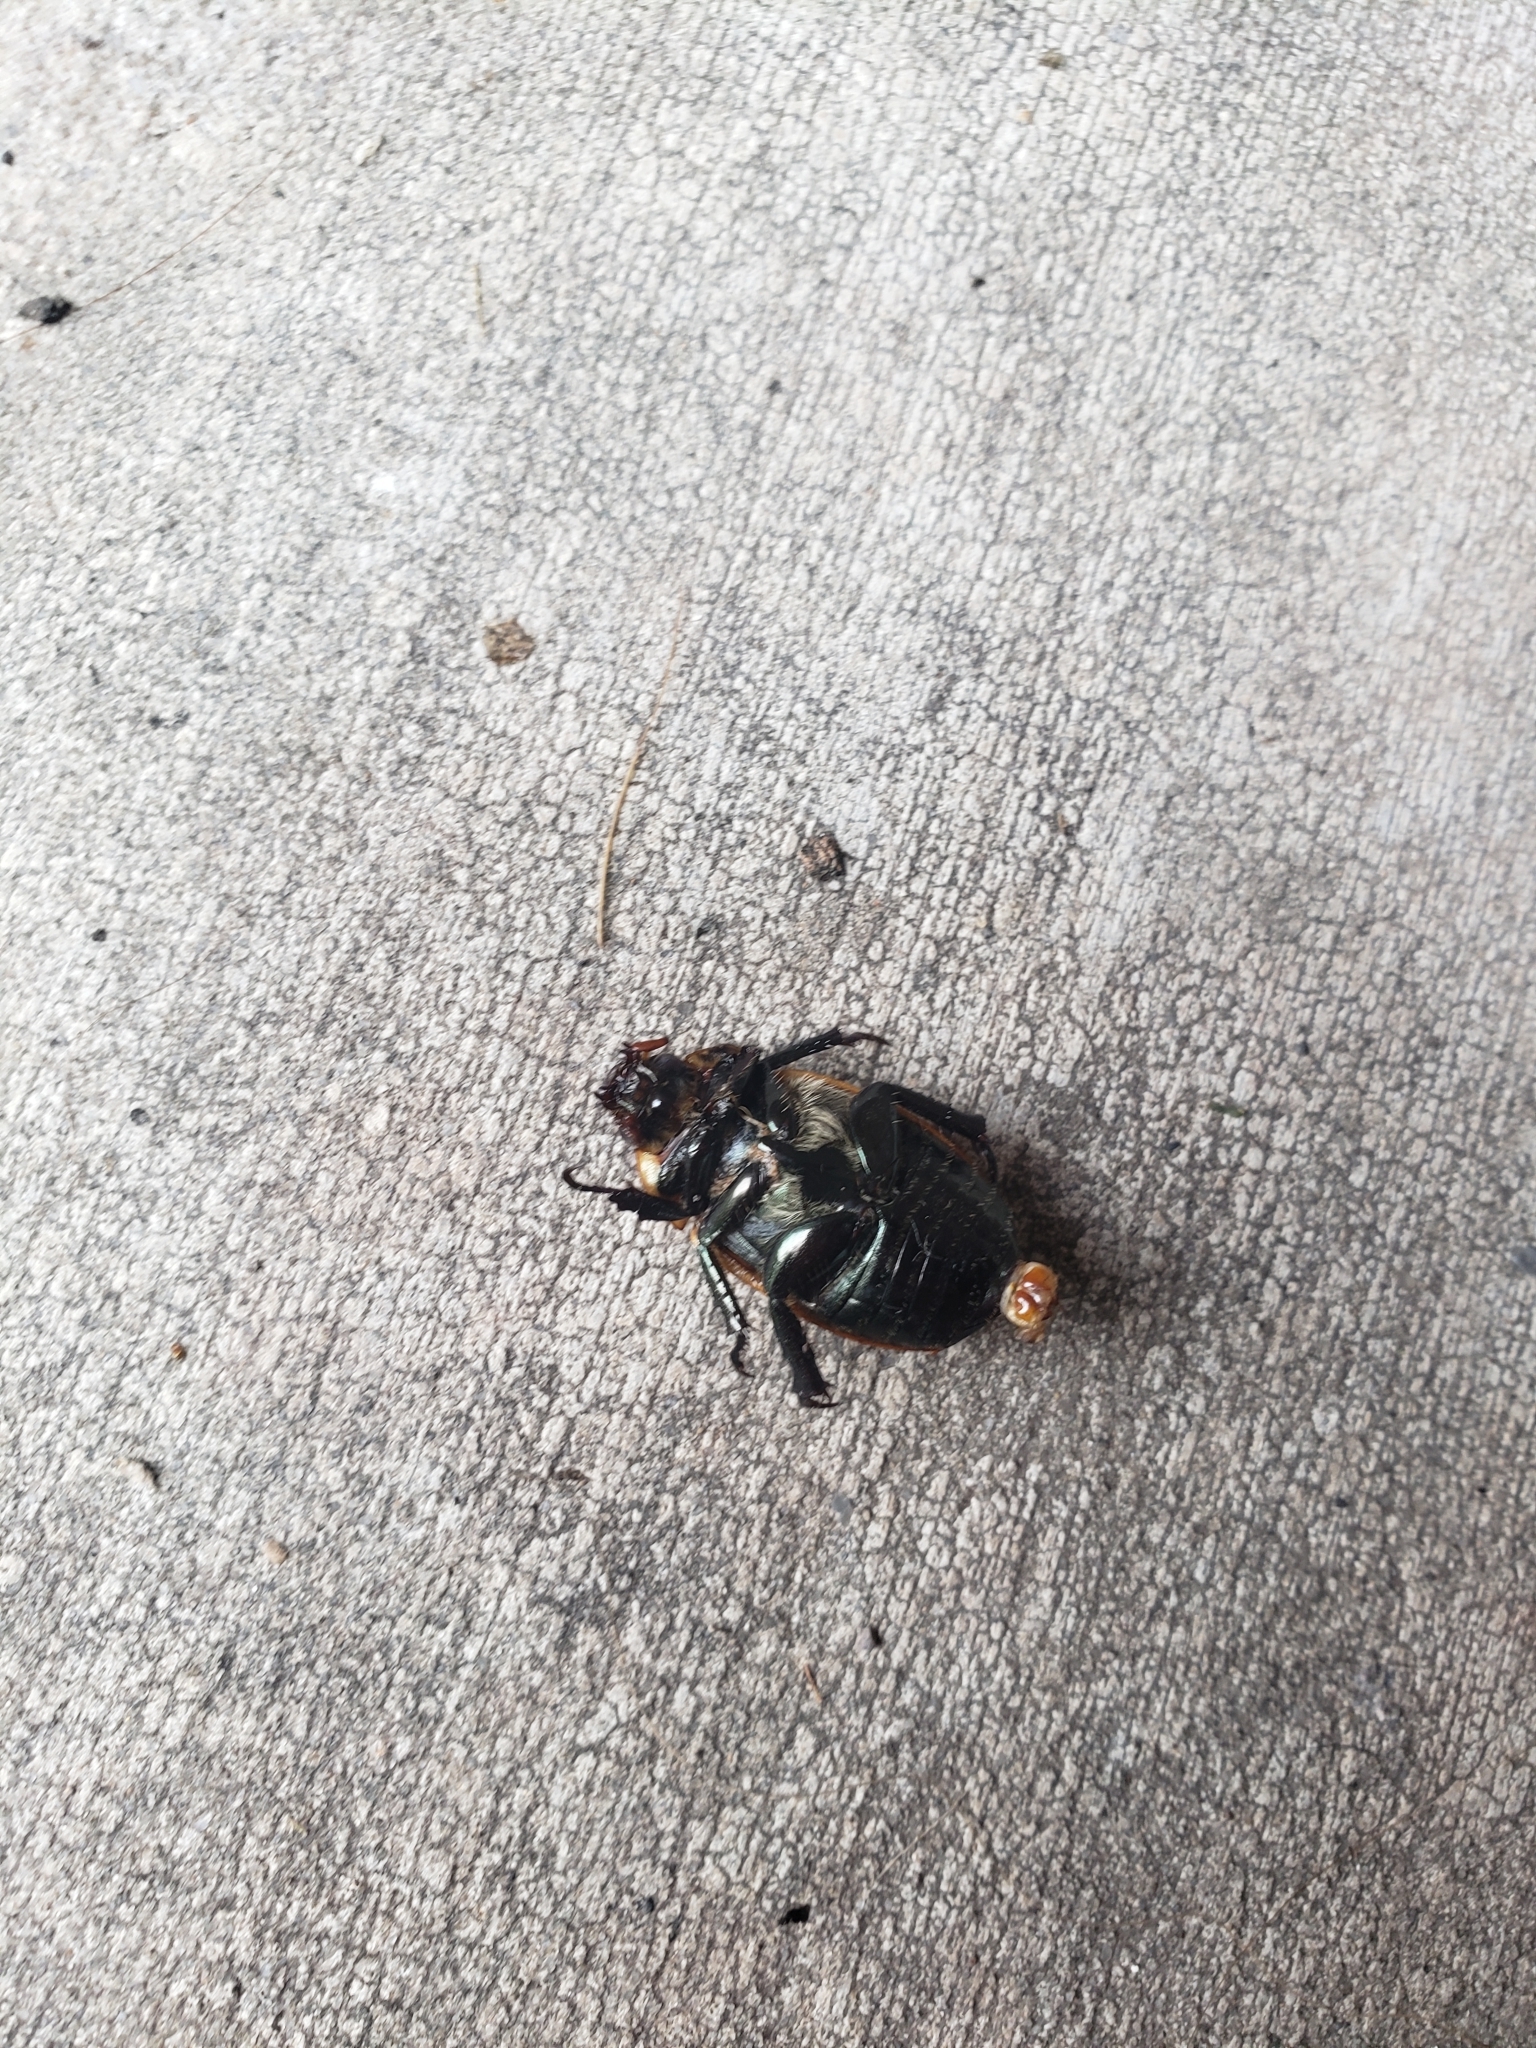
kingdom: Animalia
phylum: Arthropoda
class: Insecta
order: Coleoptera
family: Scarabaeidae
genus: Pelidnota
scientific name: Pelidnota punctata
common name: Grapevine beetle
